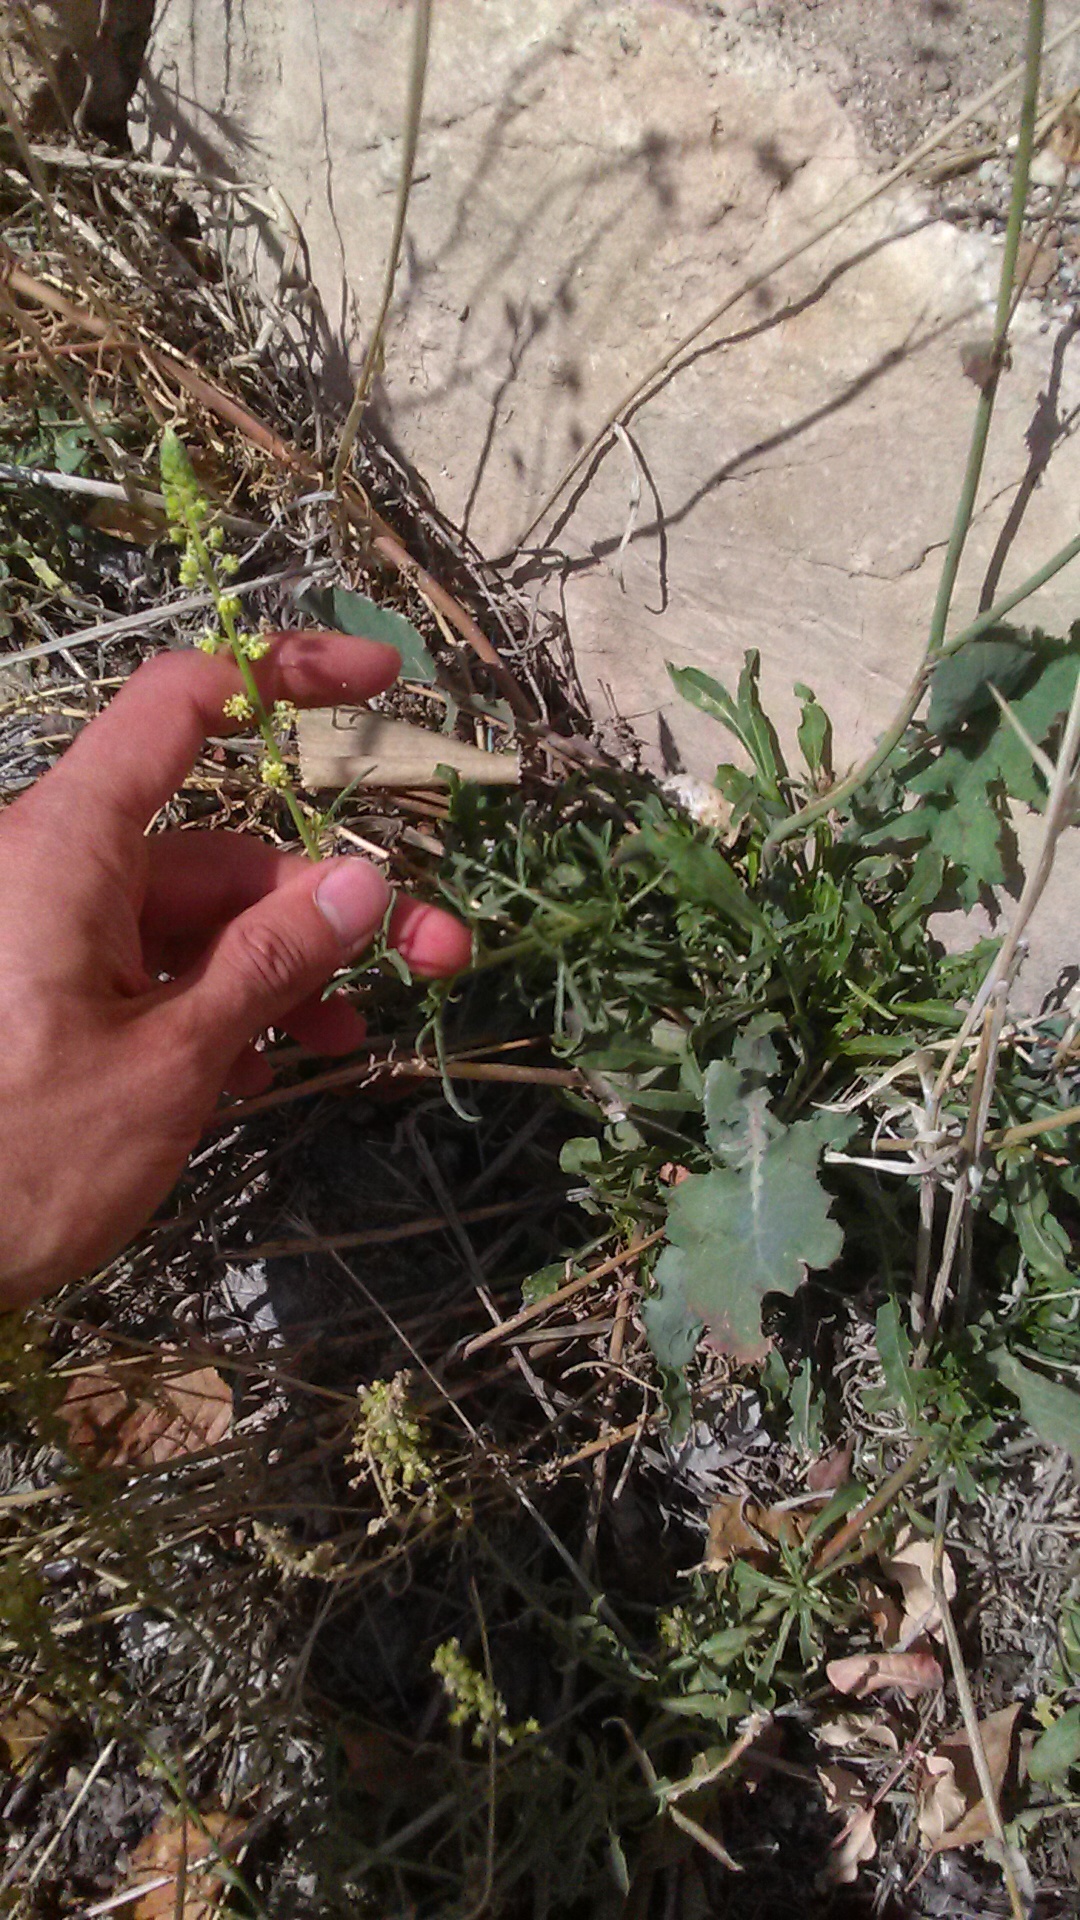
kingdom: Plantae
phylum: Tracheophyta
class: Magnoliopsida
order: Brassicales
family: Resedaceae
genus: Reseda
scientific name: Reseda lutea
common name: Wild mignonette
